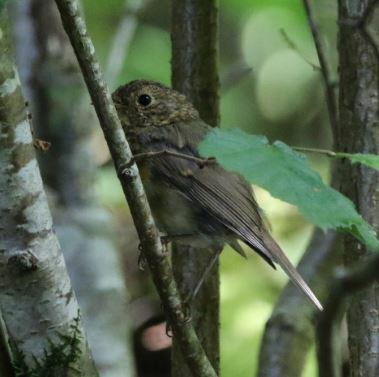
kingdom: Animalia
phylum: Chordata
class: Aves
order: Passeriformes
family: Muscicapidae
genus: Erithacus
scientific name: Erithacus rubecula
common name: European robin
